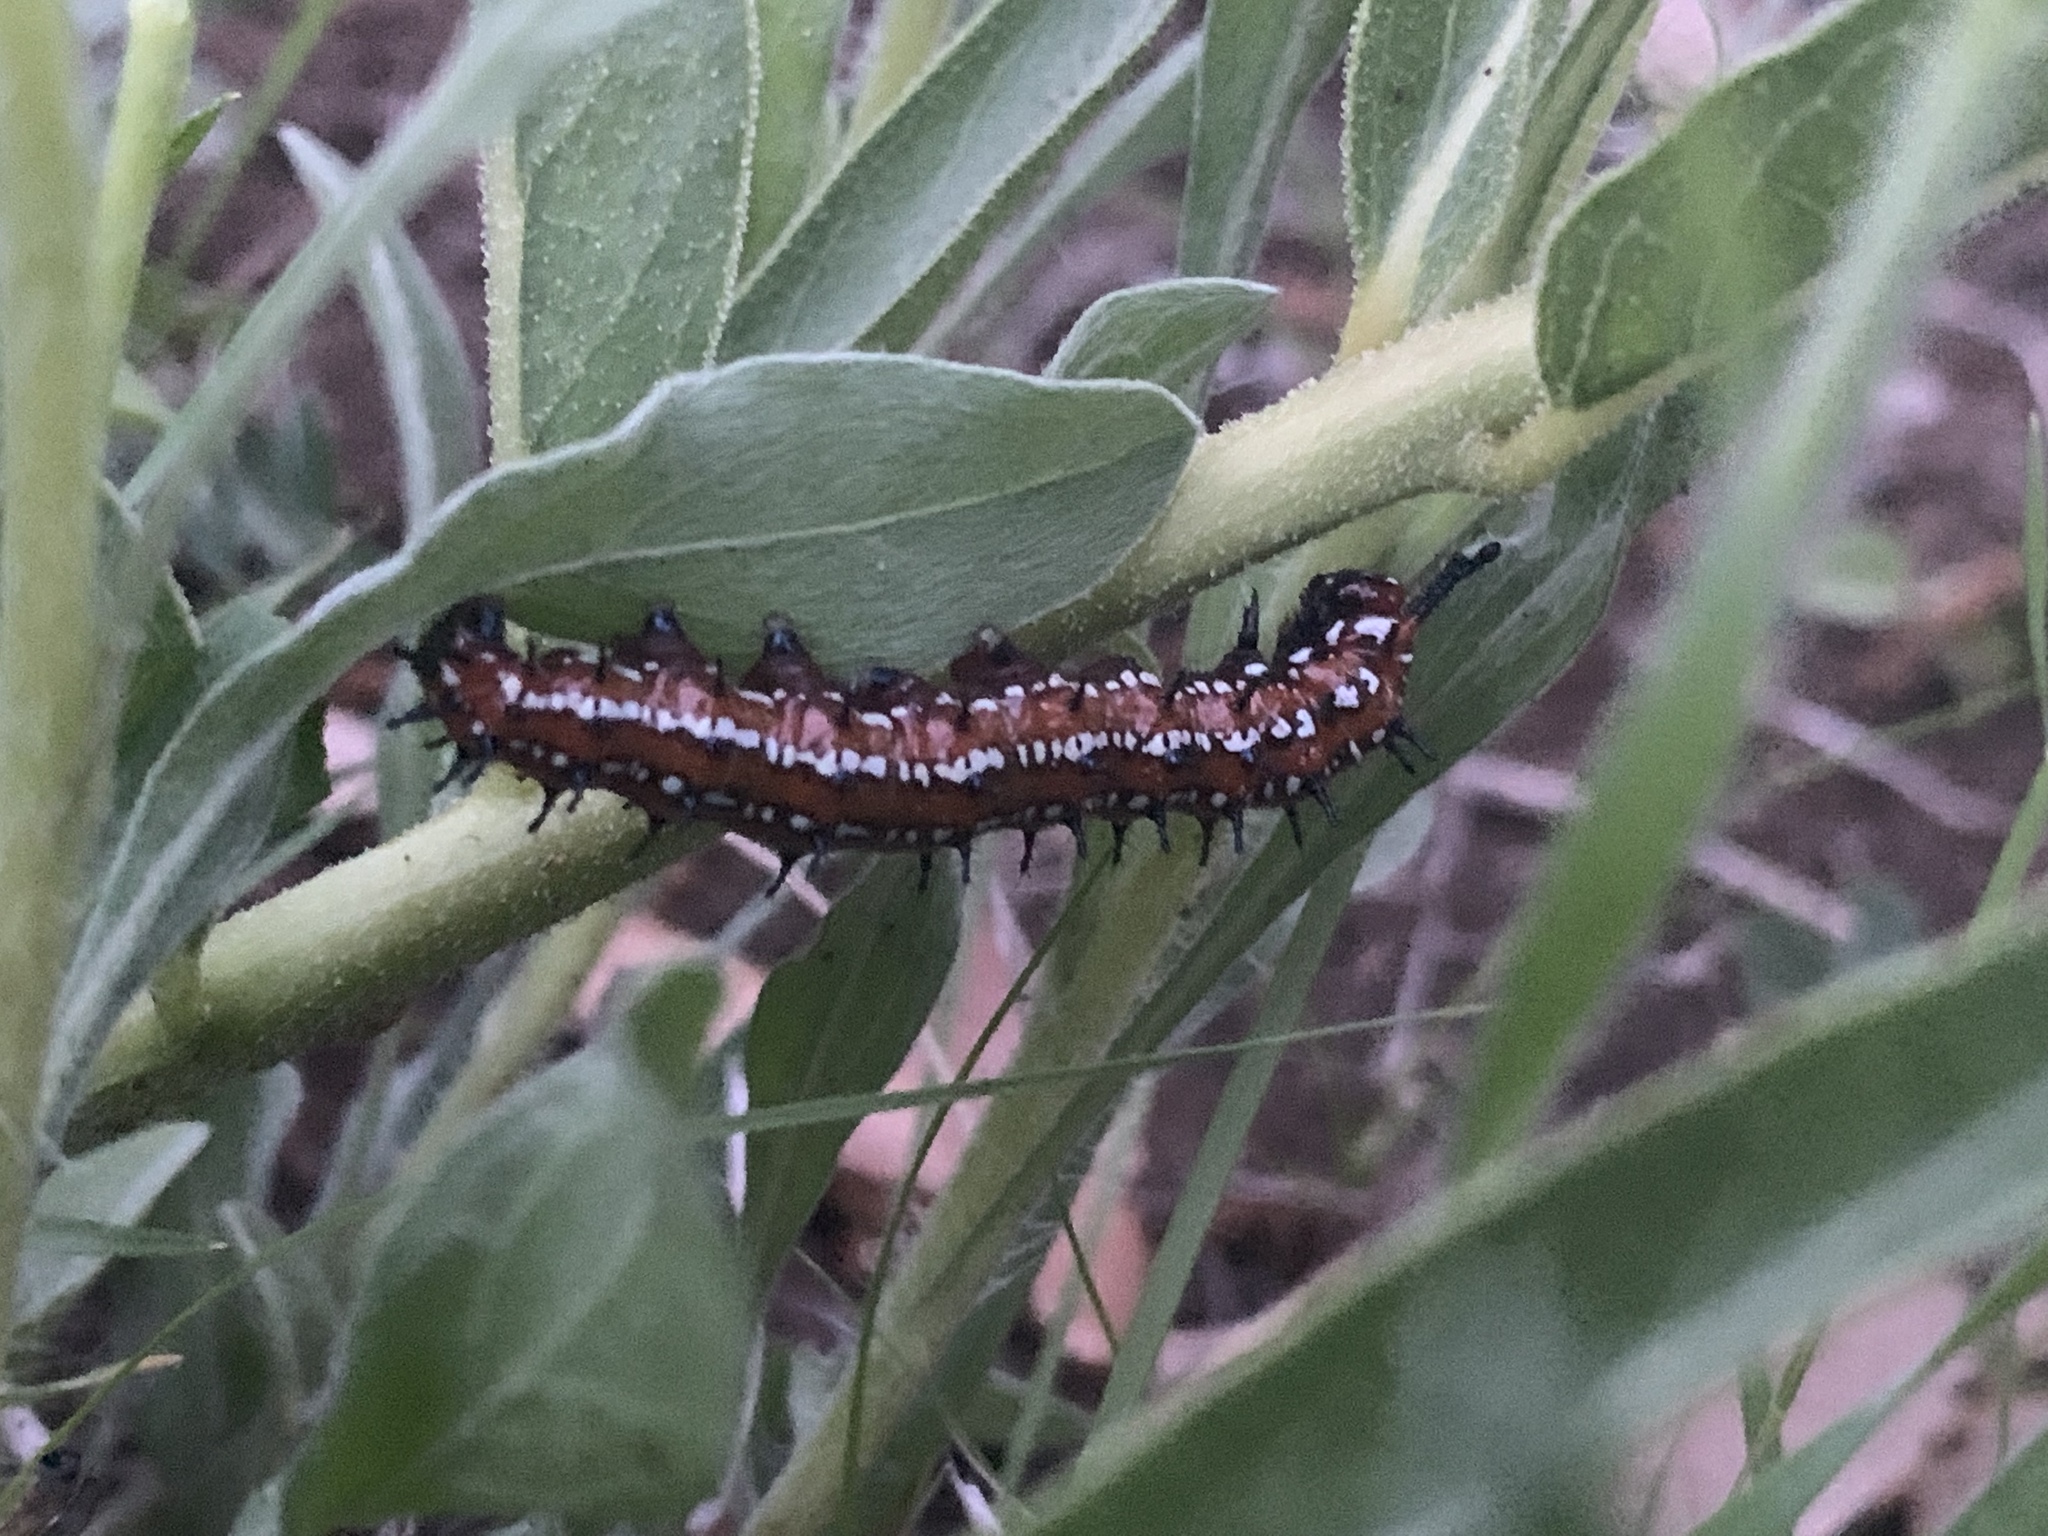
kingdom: Animalia
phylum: Arthropoda
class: Insecta
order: Lepidoptera
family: Nymphalidae
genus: Euptoieta
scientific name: Euptoieta claudia
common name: Variegated fritillary
